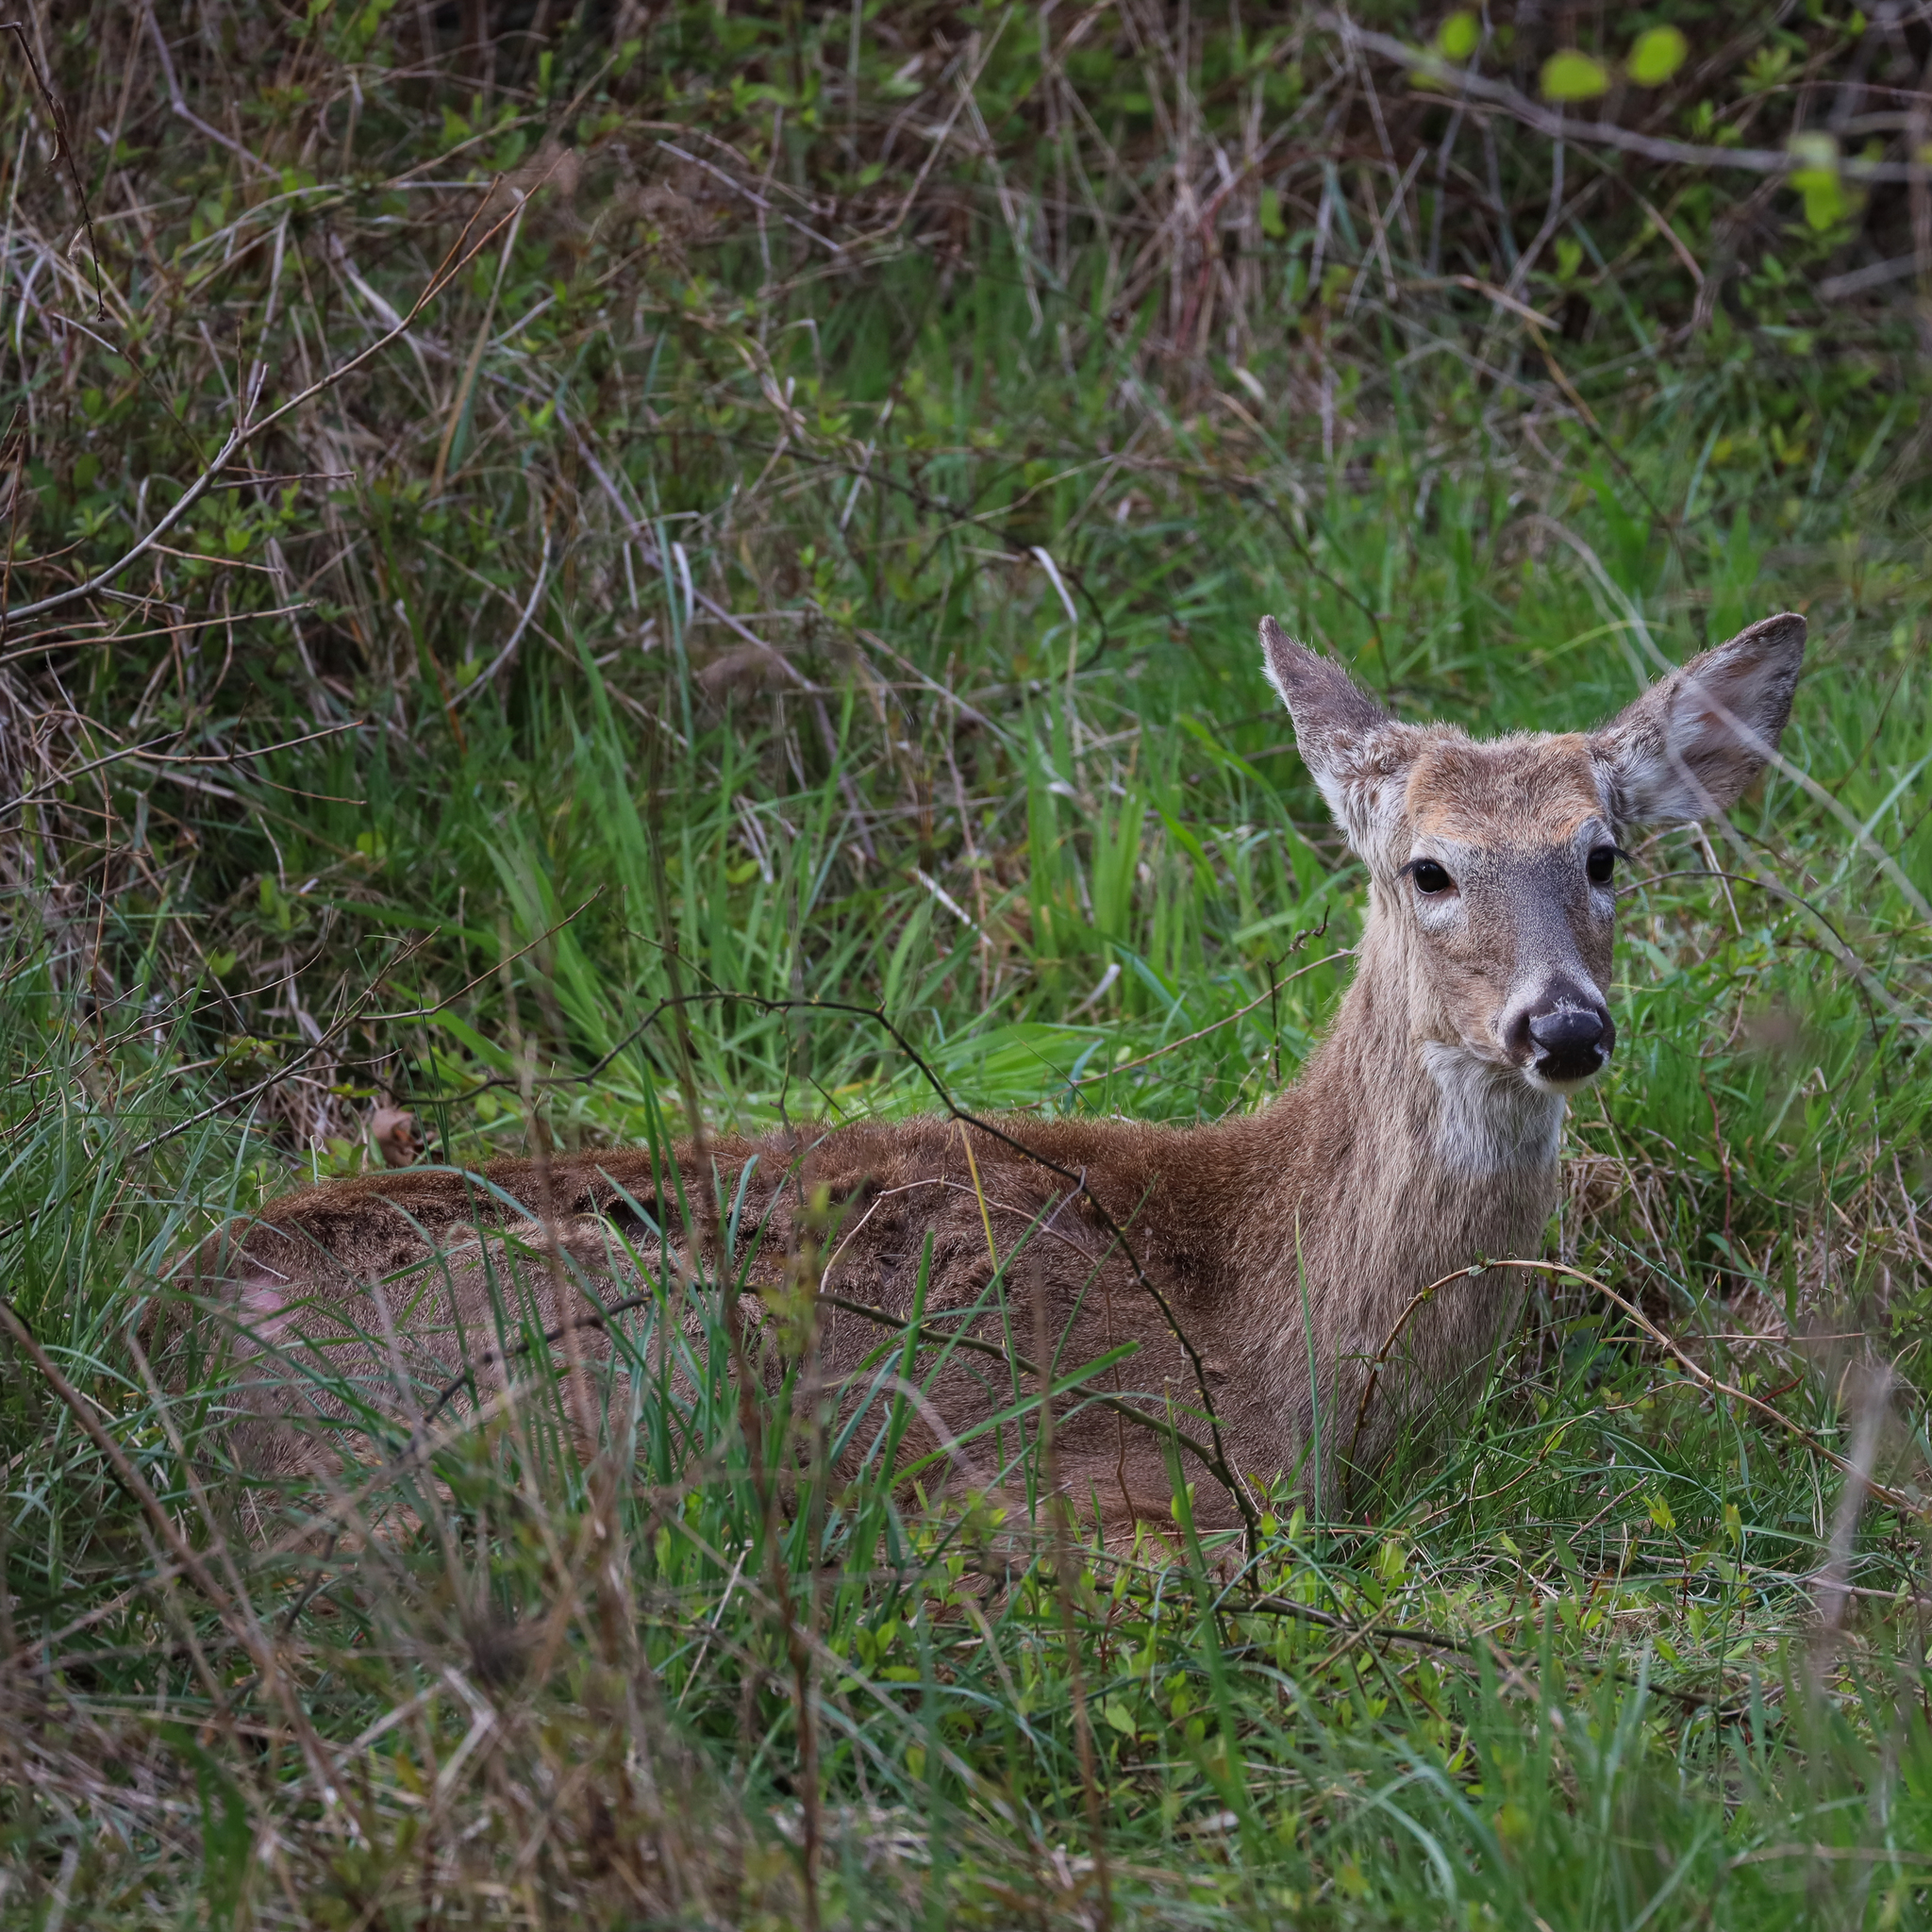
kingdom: Animalia
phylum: Chordata
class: Mammalia
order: Artiodactyla
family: Cervidae
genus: Odocoileus
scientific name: Odocoileus virginianus
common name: White-tailed deer
